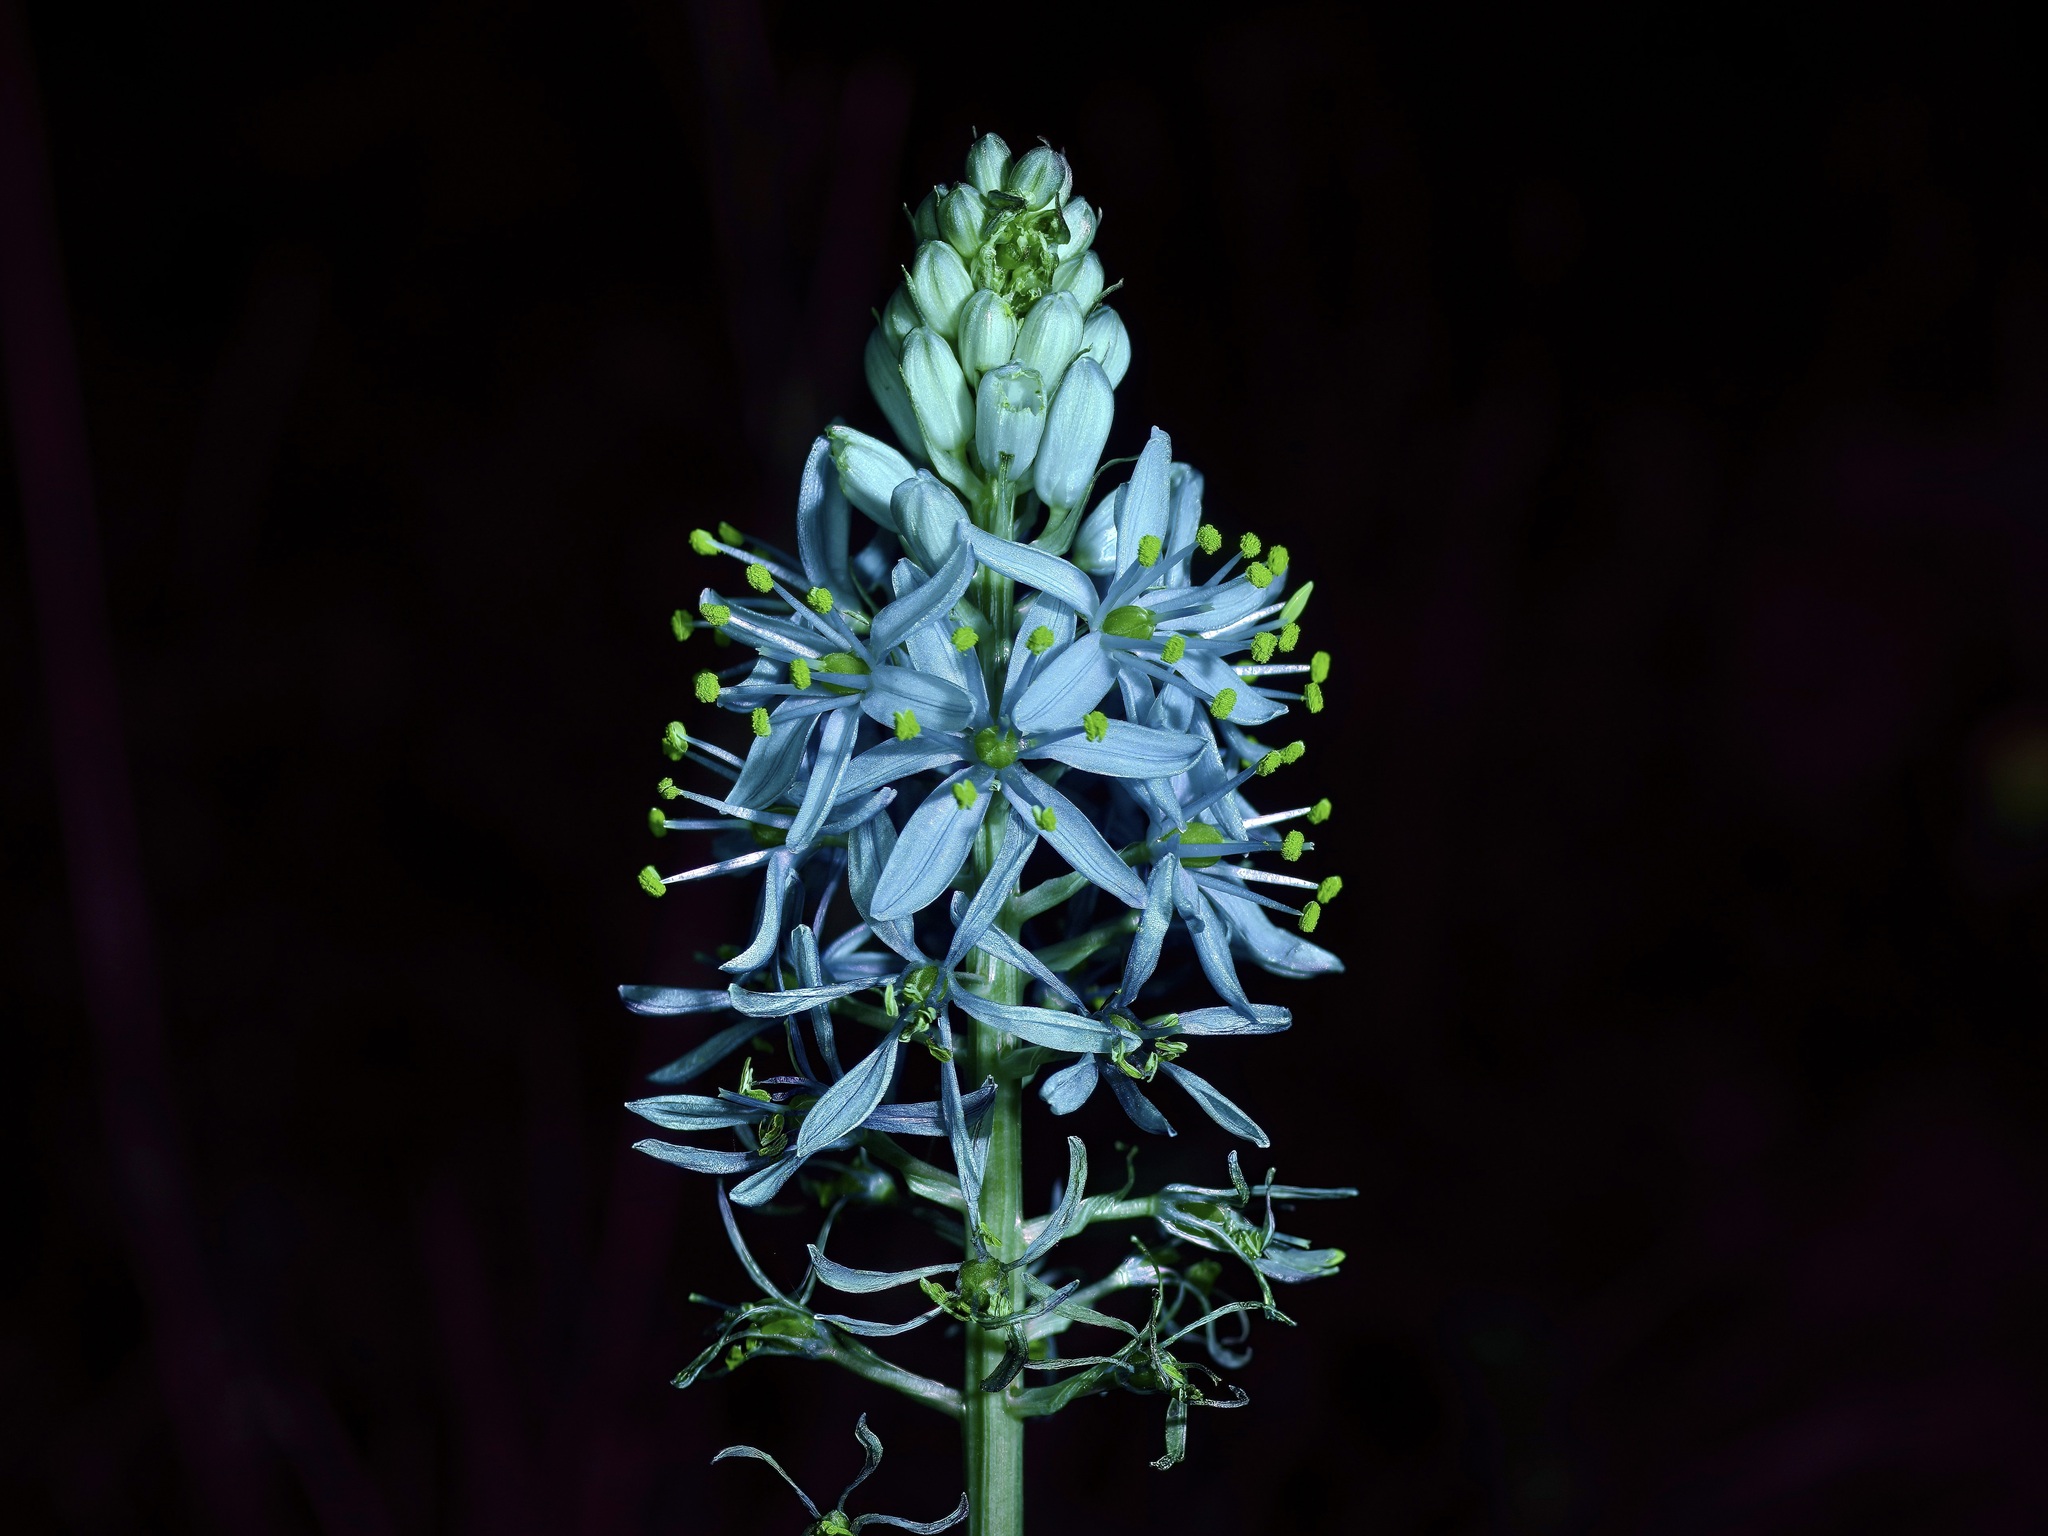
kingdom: Plantae
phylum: Tracheophyta
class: Liliopsida
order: Asparagales
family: Asparagaceae
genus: Camassia
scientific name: Camassia scilloides
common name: Wild hyacinth
